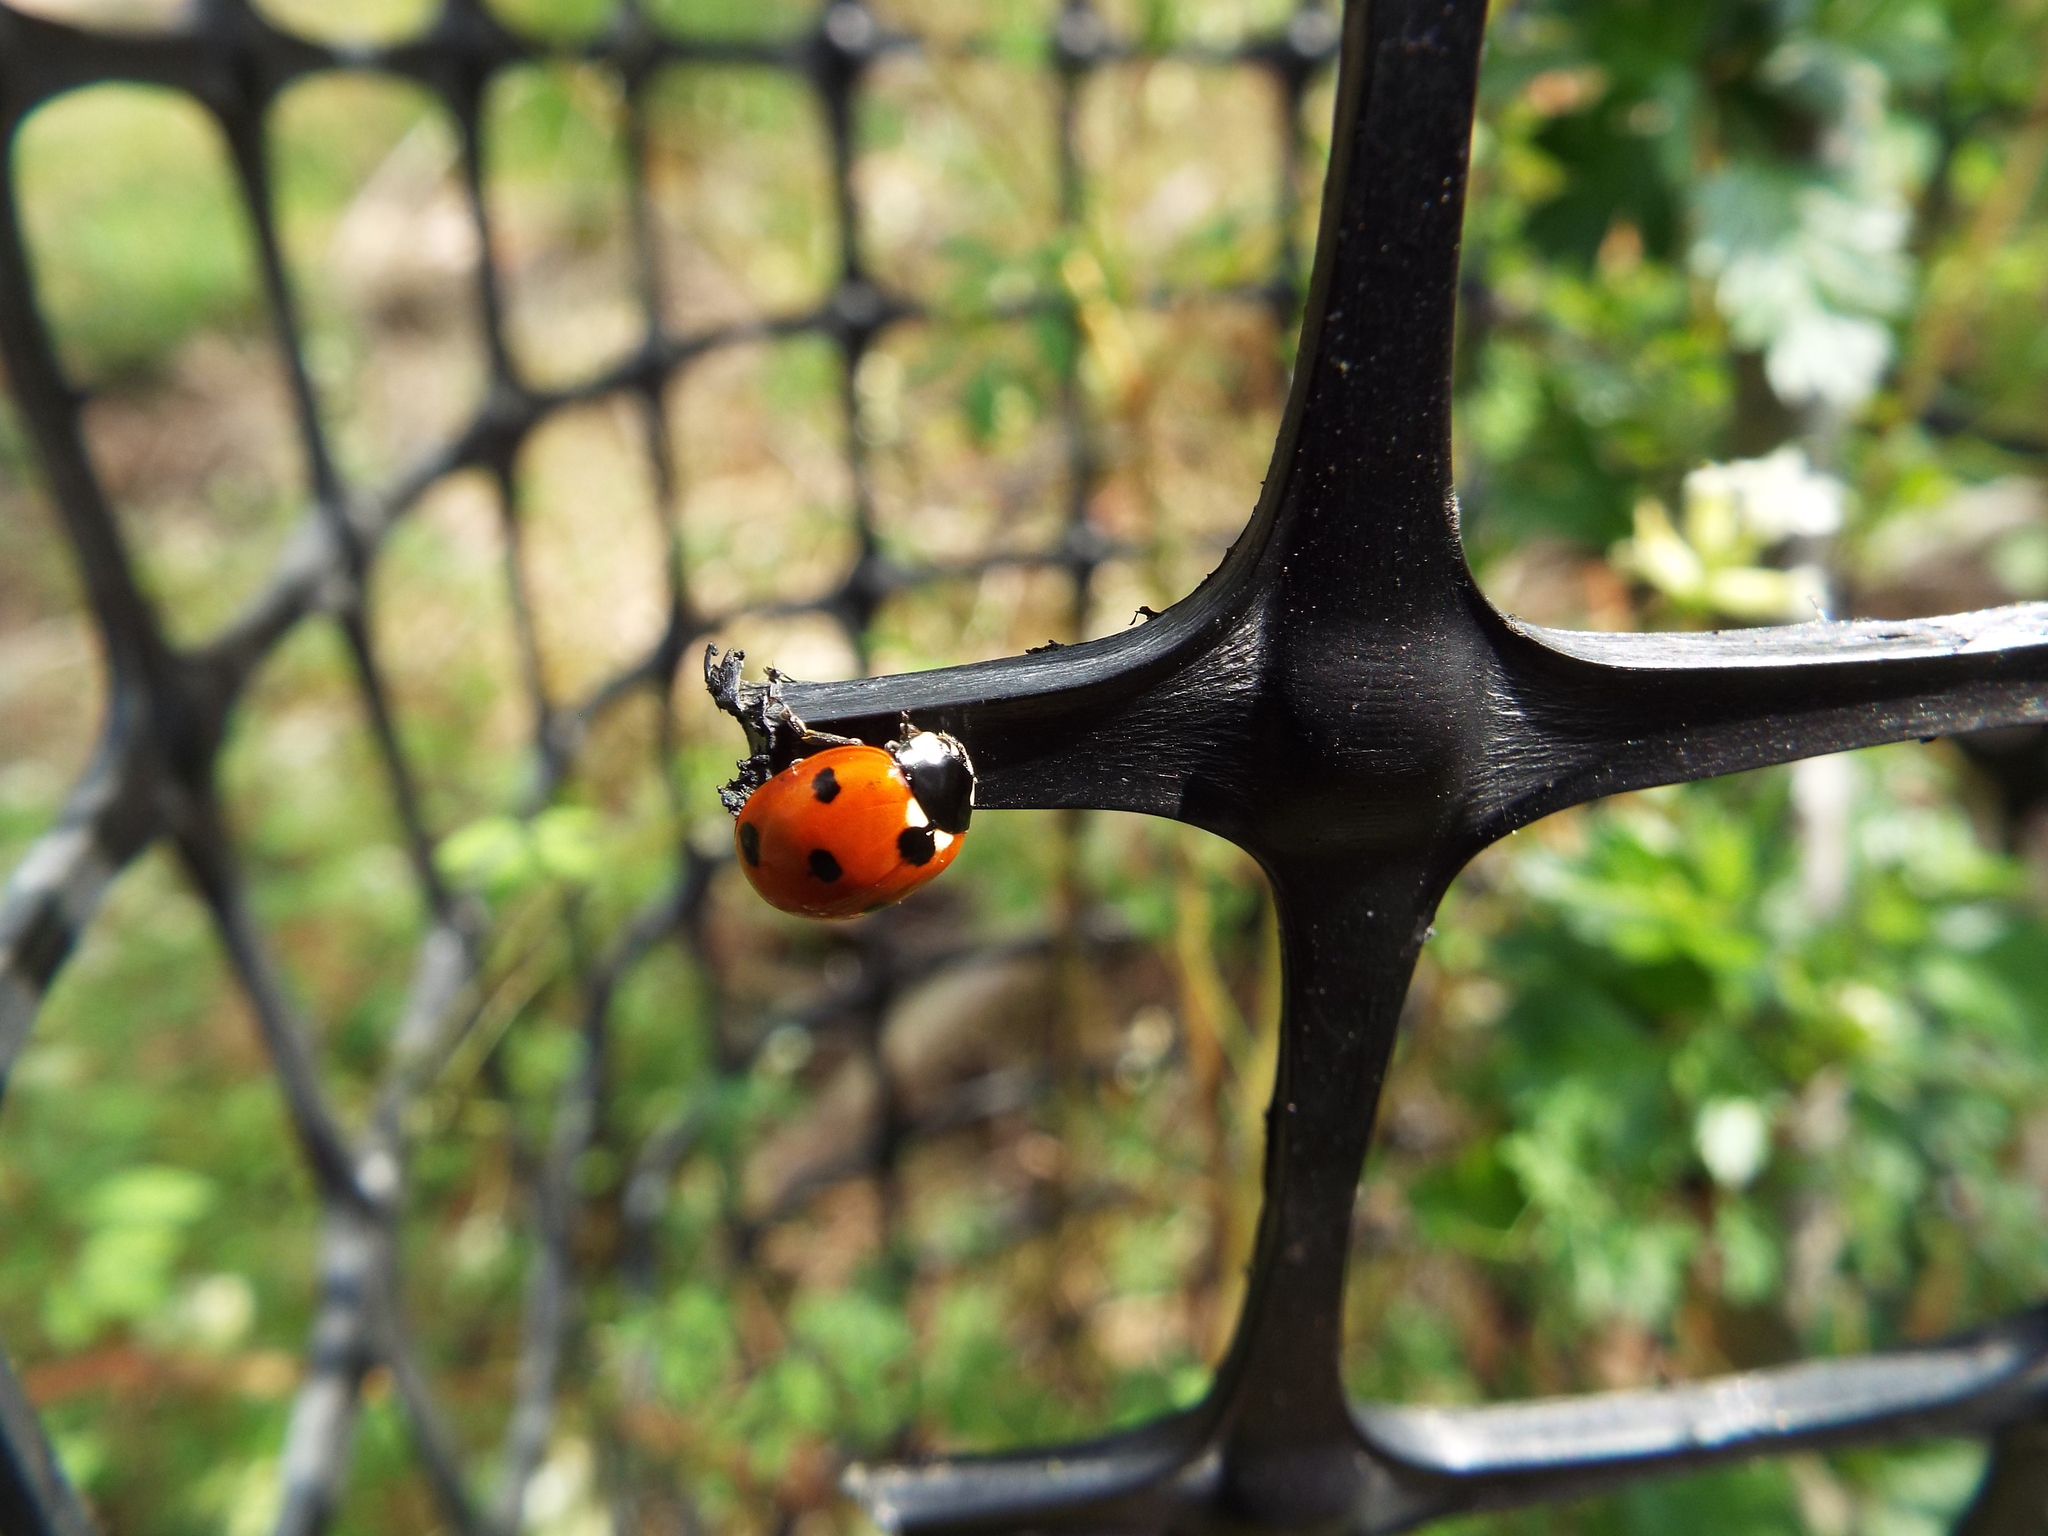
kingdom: Animalia
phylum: Arthropoda
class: Insecta
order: Coleoptera
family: Coccinellidae
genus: Coccinella
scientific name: Coccinella septempunctata
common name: Sevenspotted lady beetle
